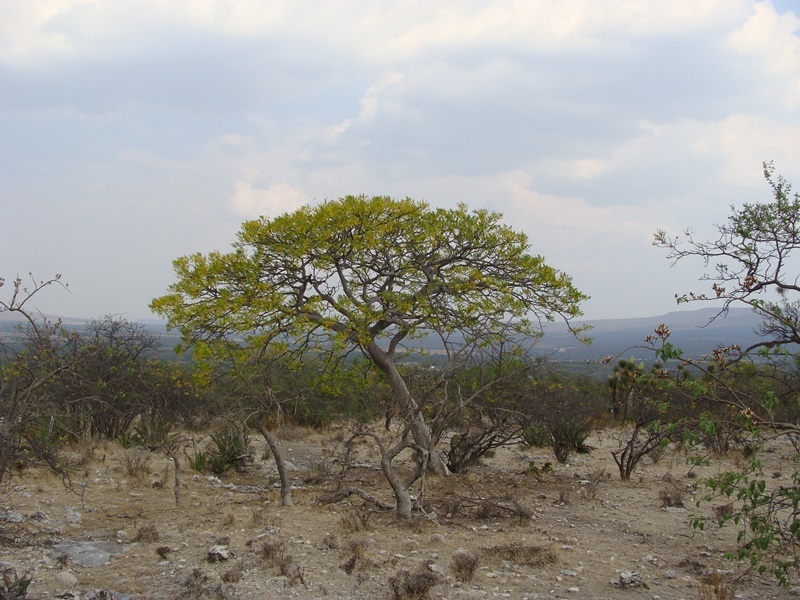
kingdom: Plantae
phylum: Tracheophyta
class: Magnoliopsida
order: Fabales
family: Fabaceae
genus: Conzattia
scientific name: Conzattia multiflora
